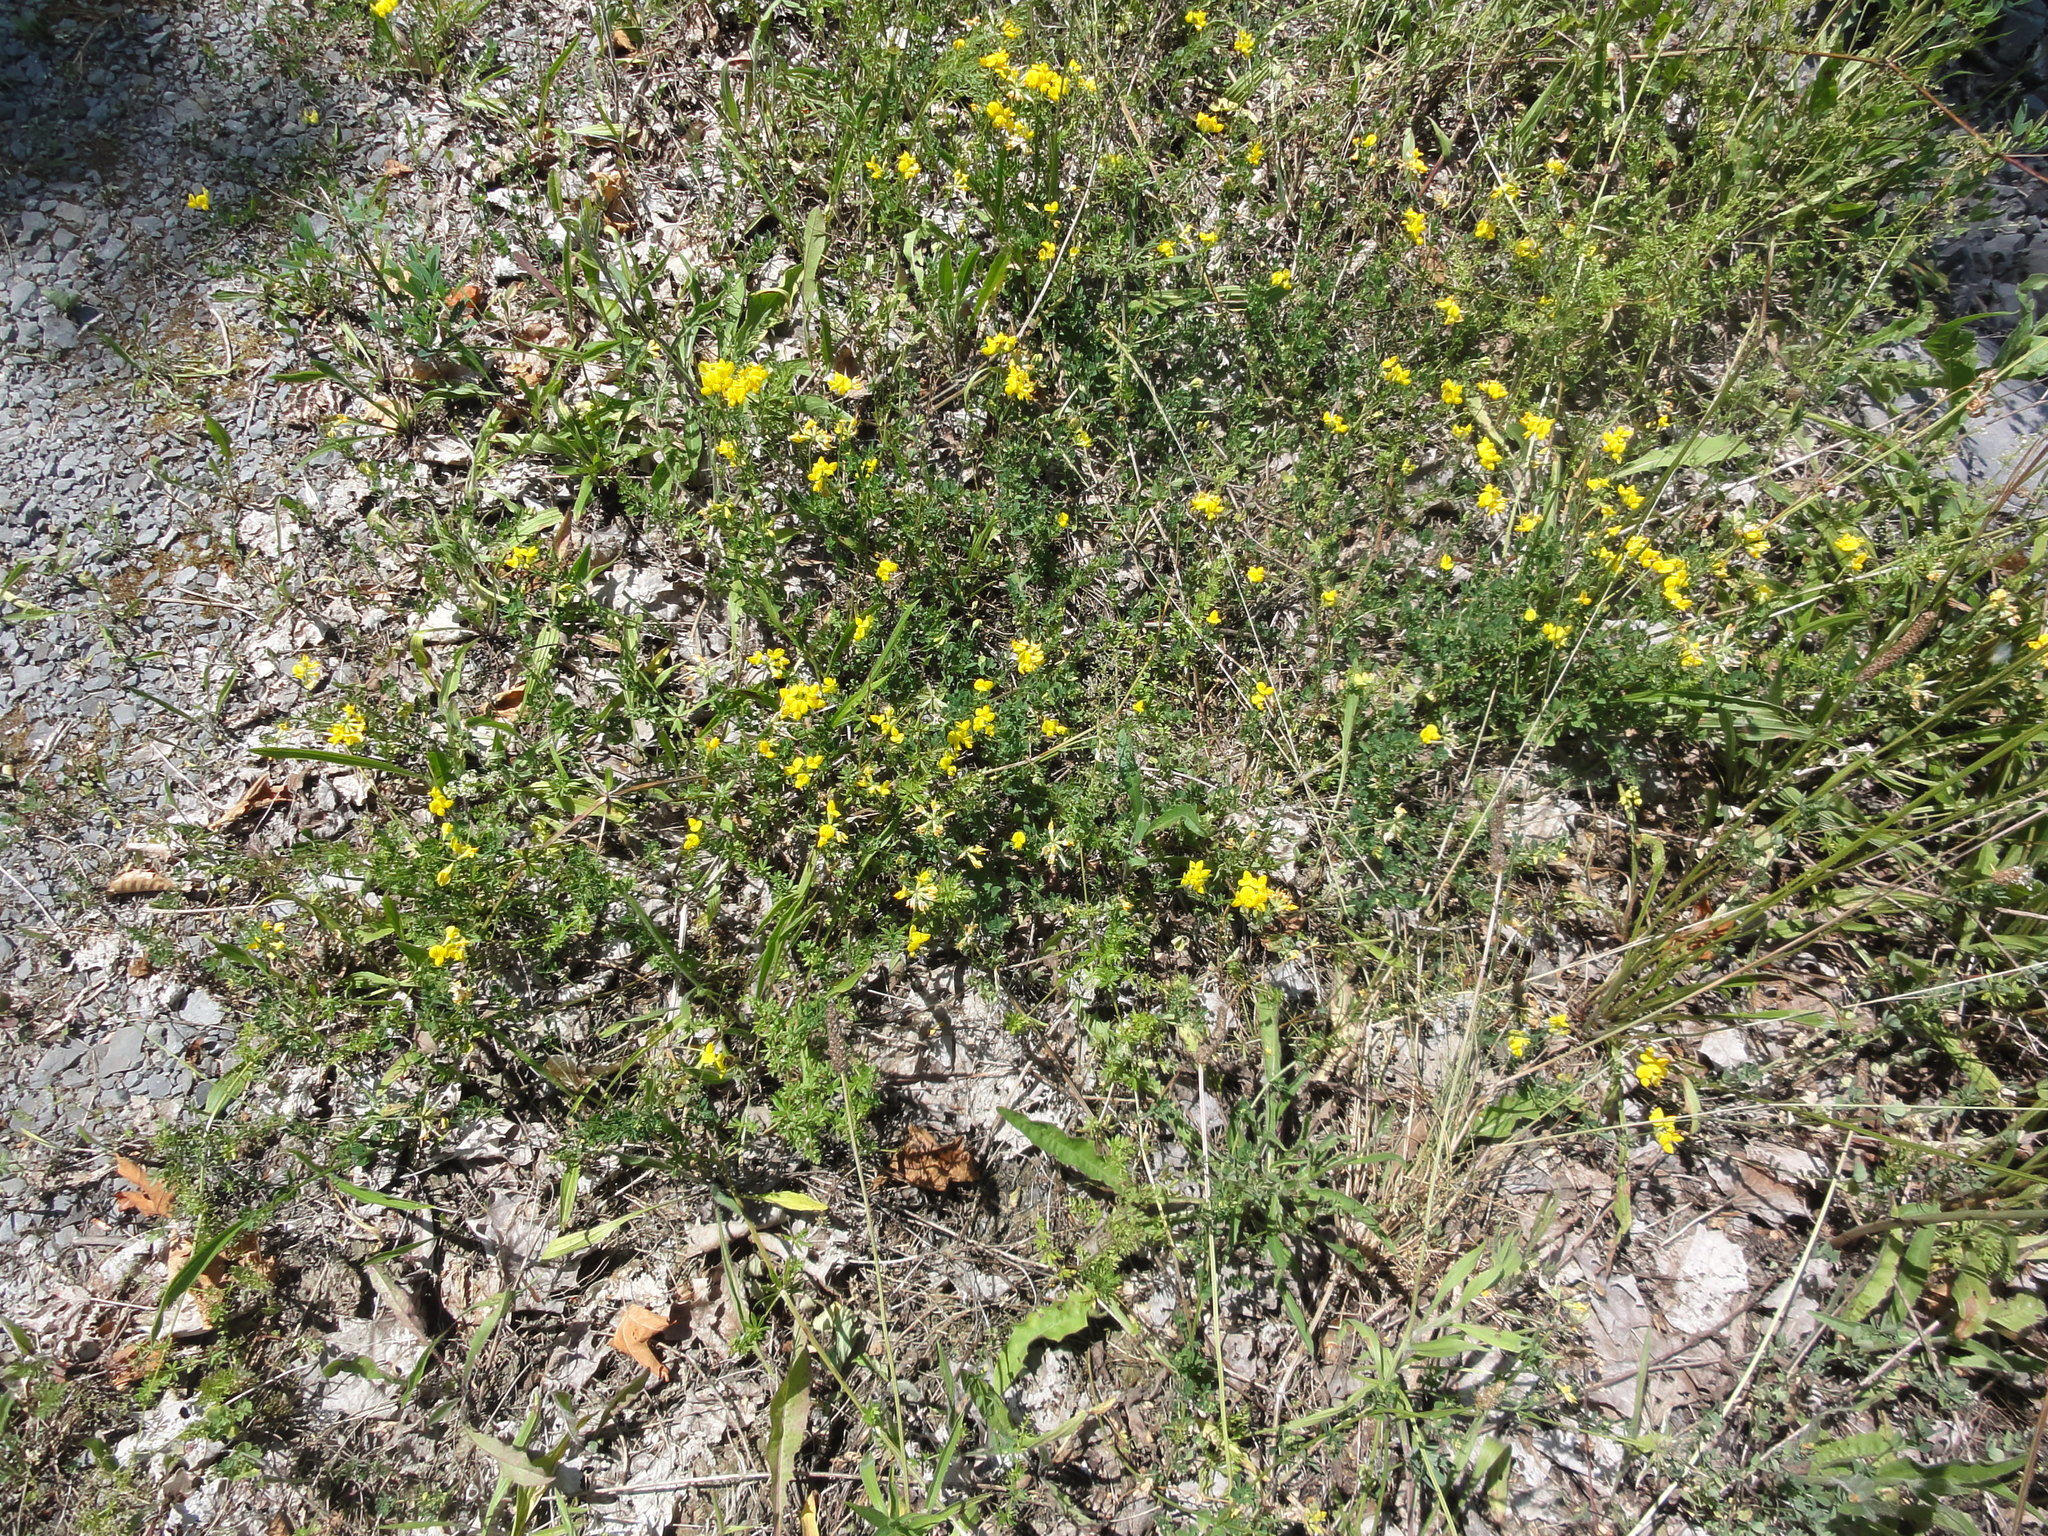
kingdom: Plantae
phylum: Tracheophyta
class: Magnoliopsida
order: Fabales
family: Fabaceae
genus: Lotus
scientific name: Lotus corniculatus
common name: Common bird's-foot-trefoil
